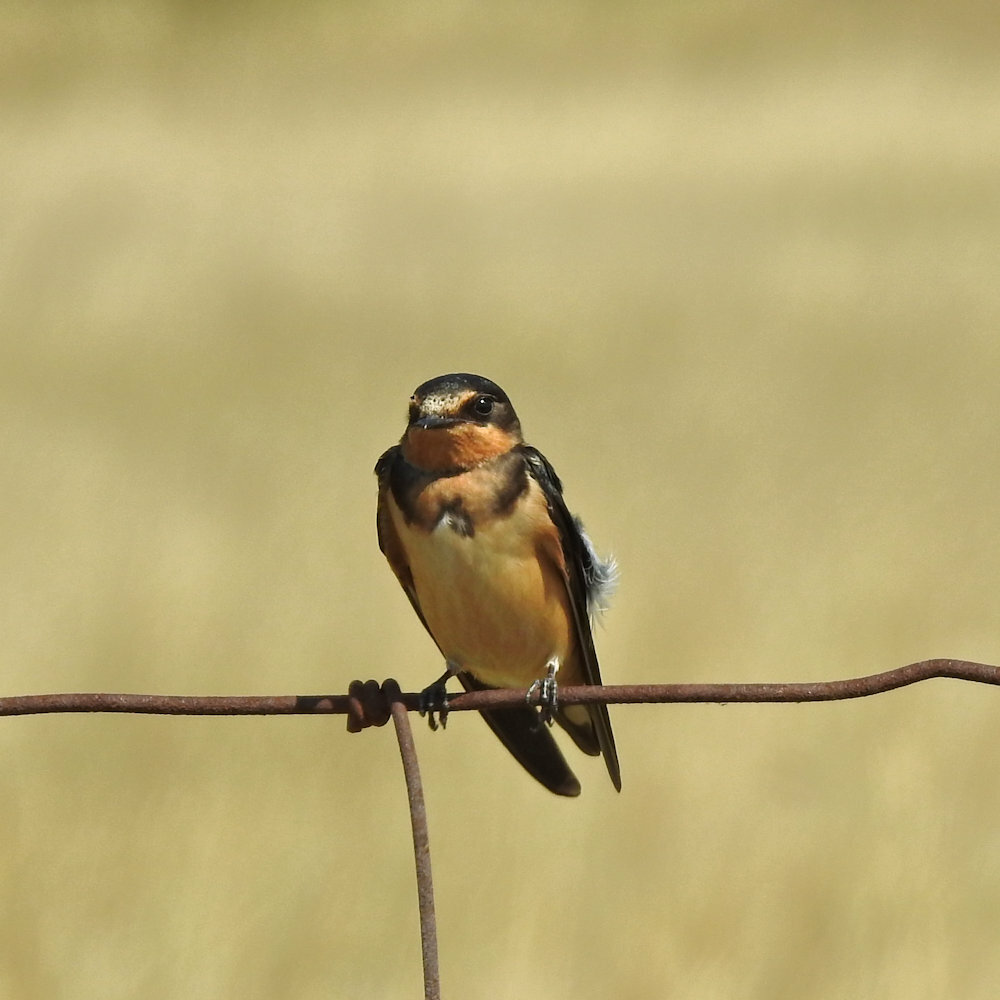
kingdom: Animalia
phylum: Chordata
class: Aves
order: Passeriformes
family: Hirundinidae
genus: Hirundo
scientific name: Hirundo rustica
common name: Barn swallow
